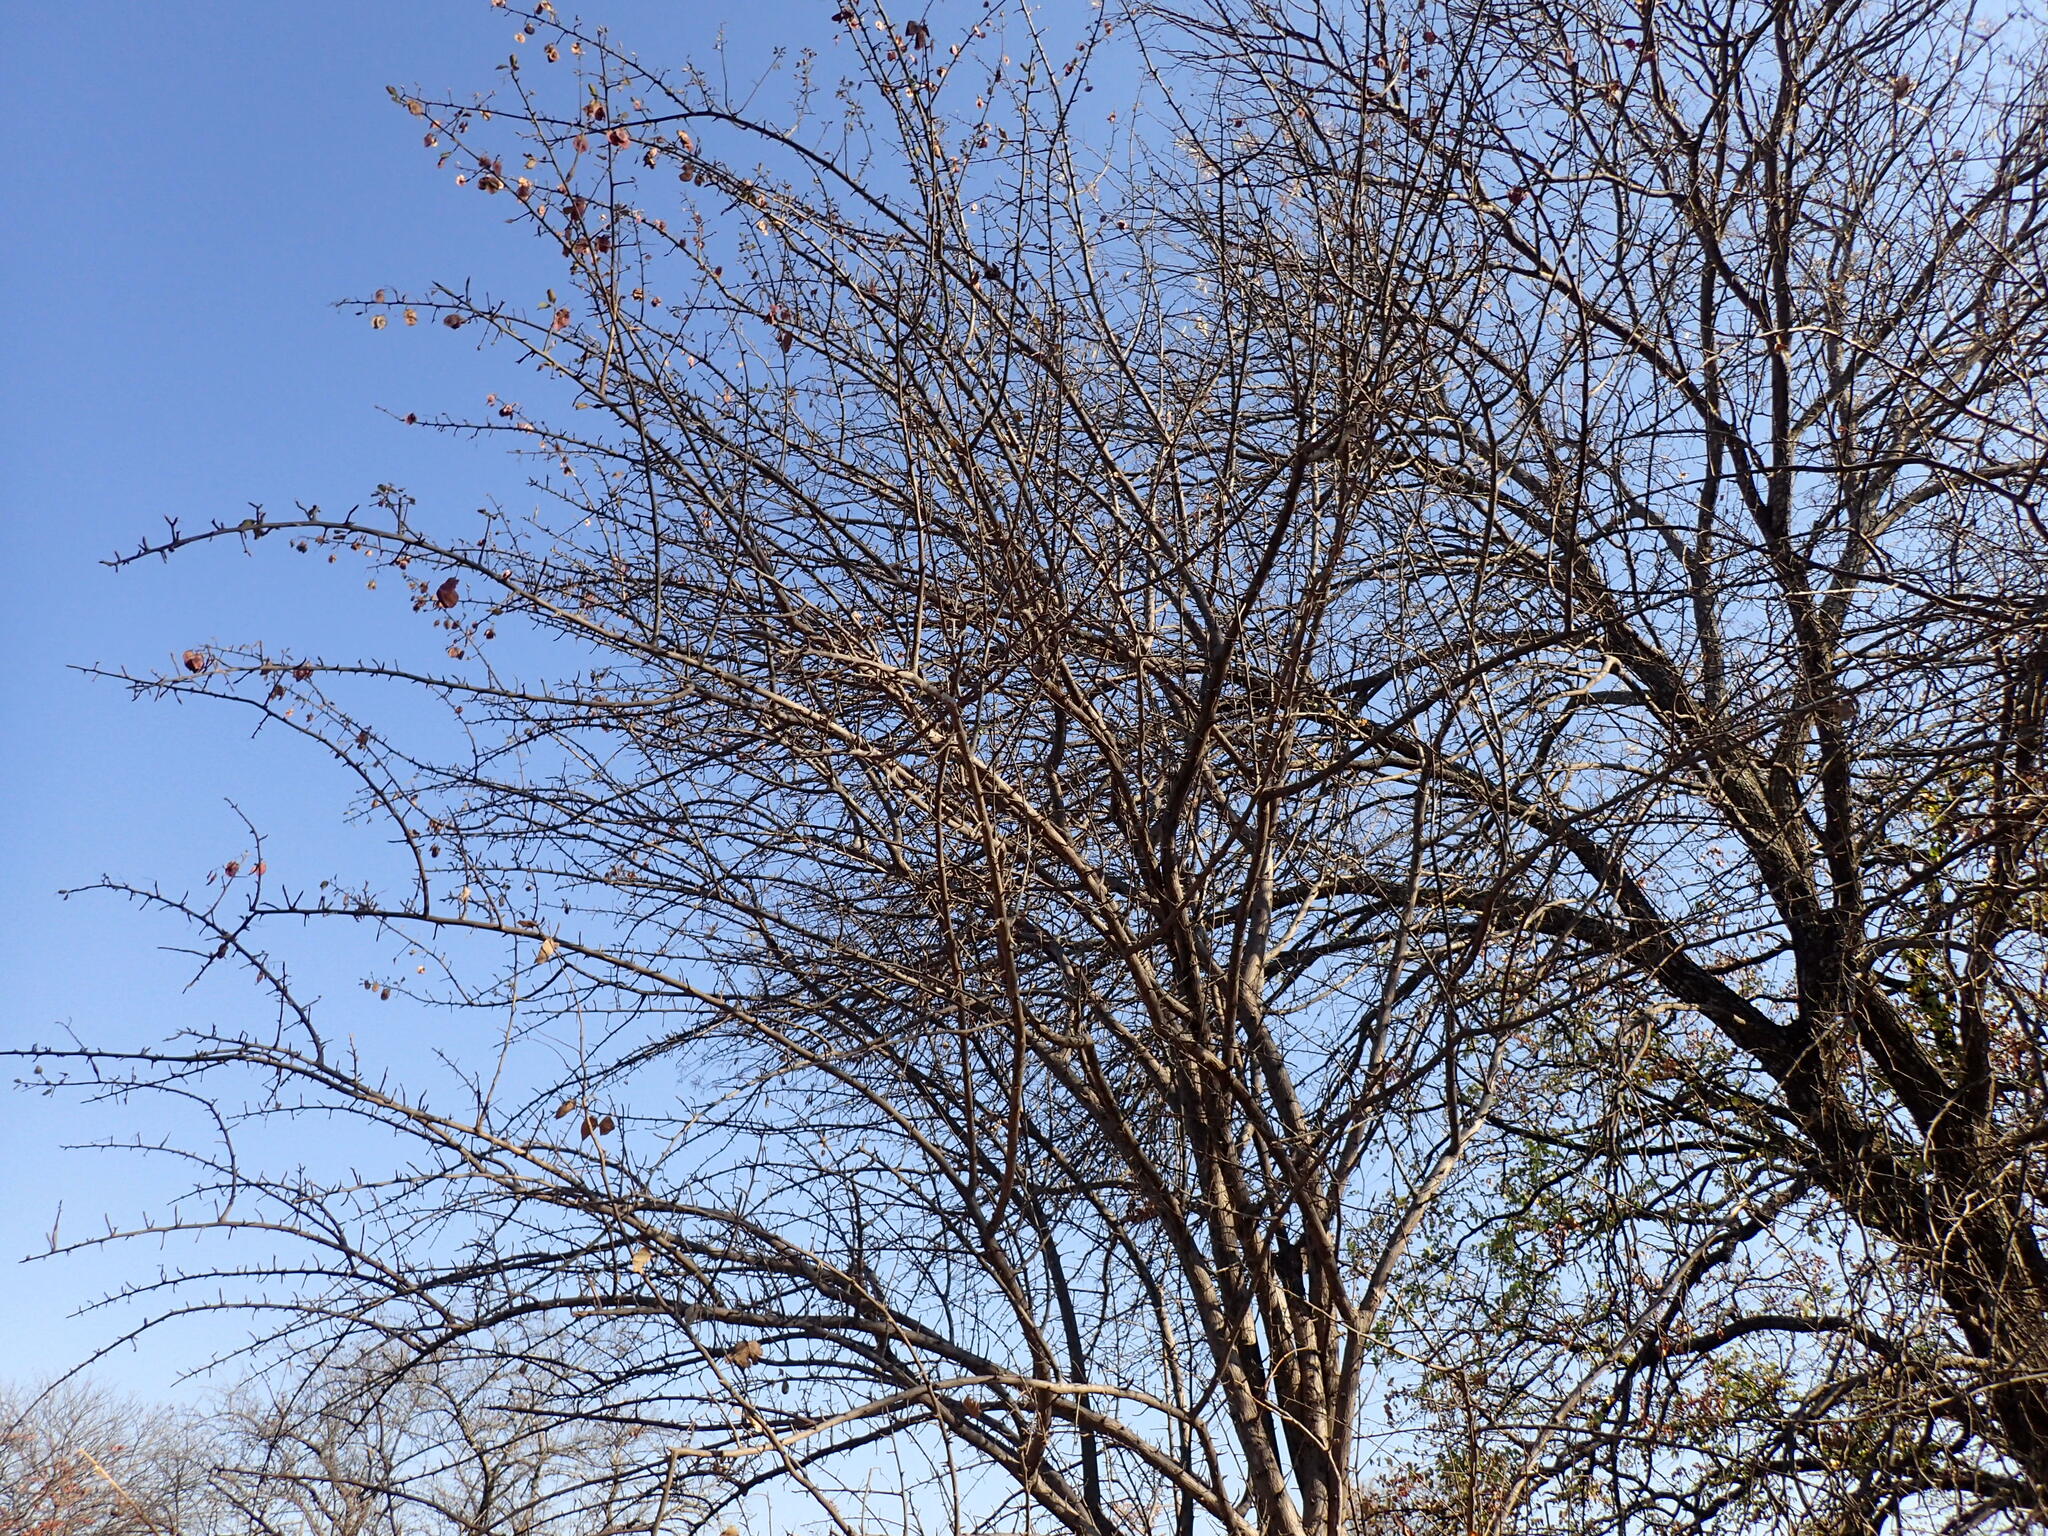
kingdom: Plantae
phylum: Tracheophyta
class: Magnoliopsida
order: Myrtales
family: Combretaceae
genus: Terminalia
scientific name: Terminalia prunioides
